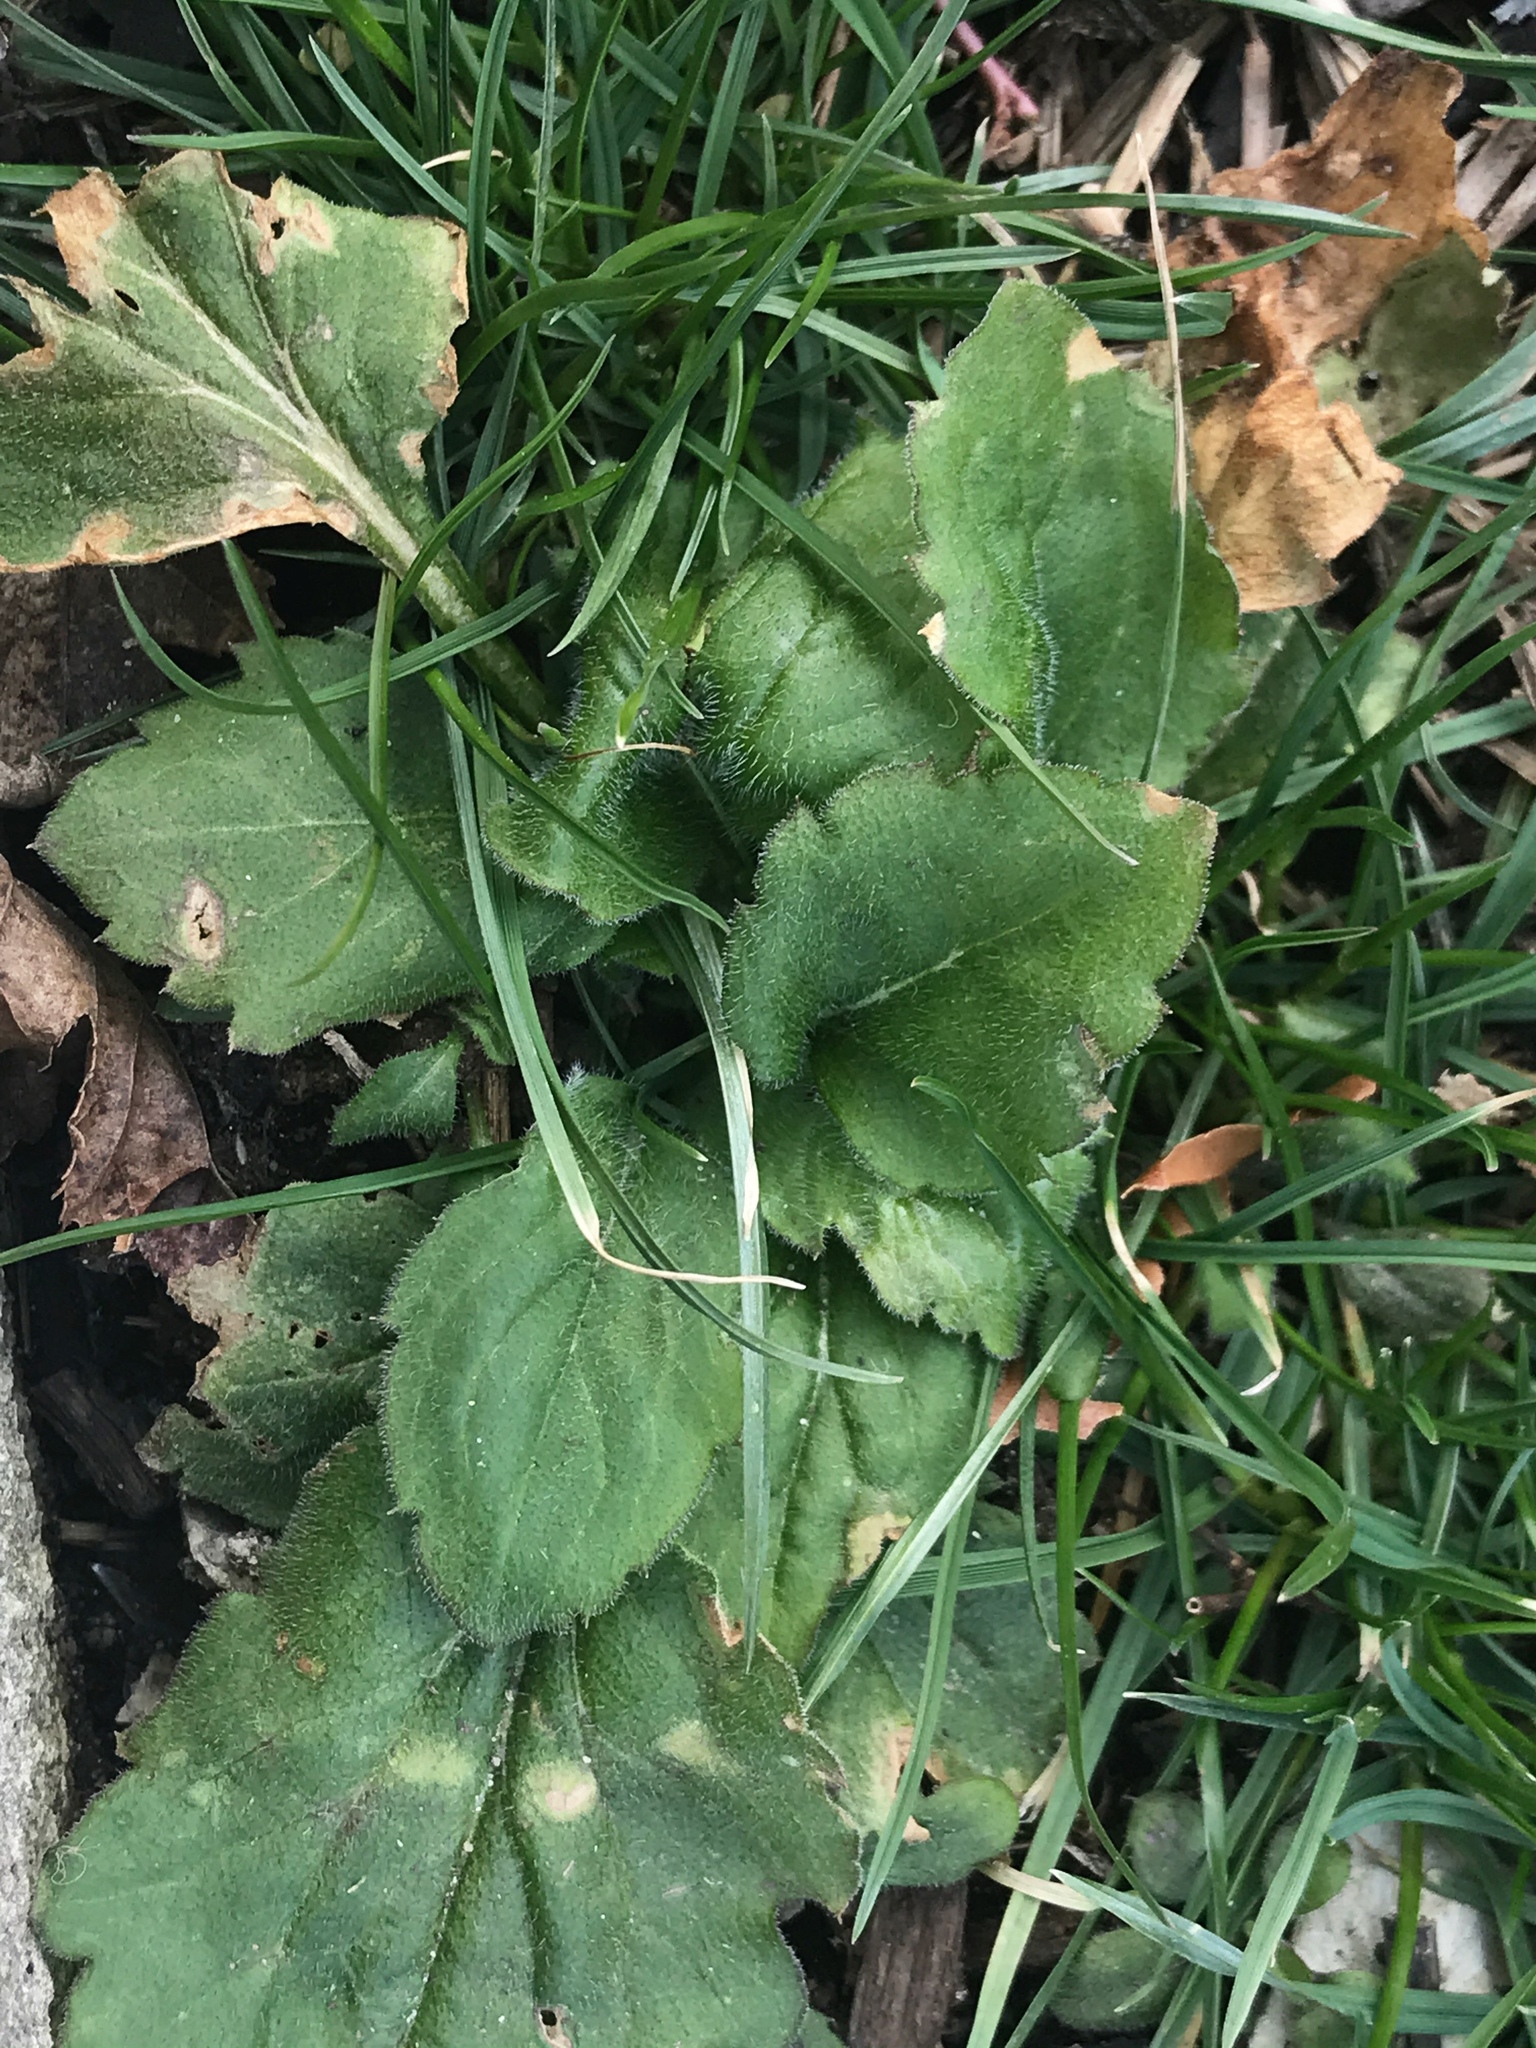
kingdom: Plantae
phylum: Tracheophyta
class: Magnoliopsida
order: Asterales
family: Asteraceae
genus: Erigeron
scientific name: Erigeron annuus
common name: Tall fleabane
